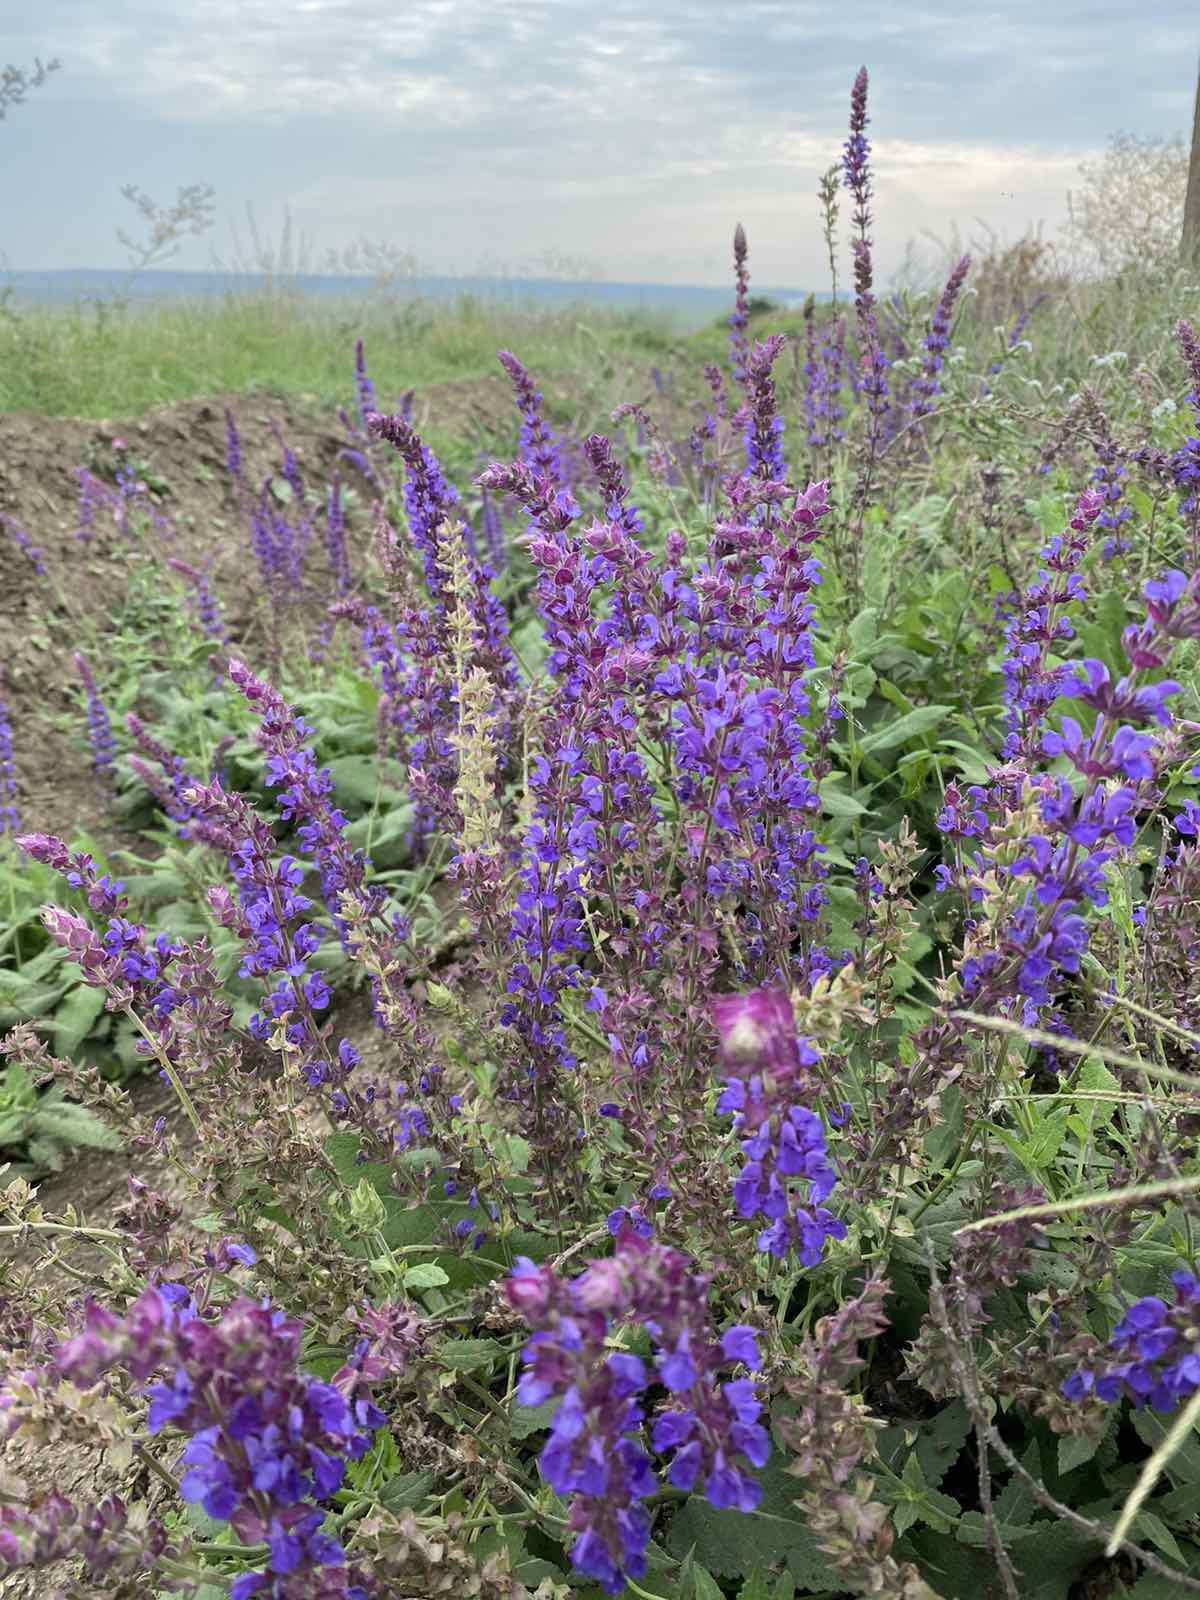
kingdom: Plantae
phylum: Tracheophyta
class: Magnoliopsida
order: Lamiales
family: Lamiaceae
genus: Salvia
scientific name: Salvia nemorosa
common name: Balkan clary
